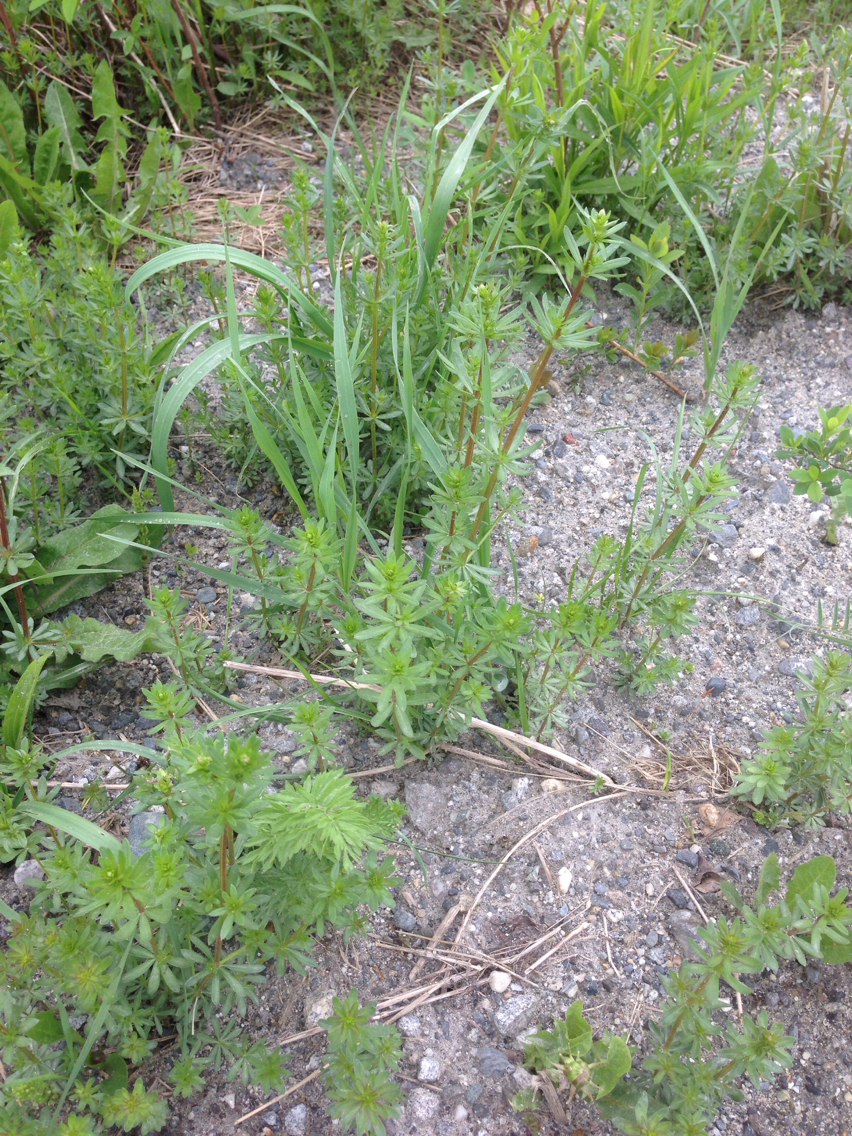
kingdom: Plantae
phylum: Tracheophyta
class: Magnoliopsida
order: Gentianales
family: Rubiaceae
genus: Galium
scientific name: Galium mollugo
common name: Hedge bedstraw
